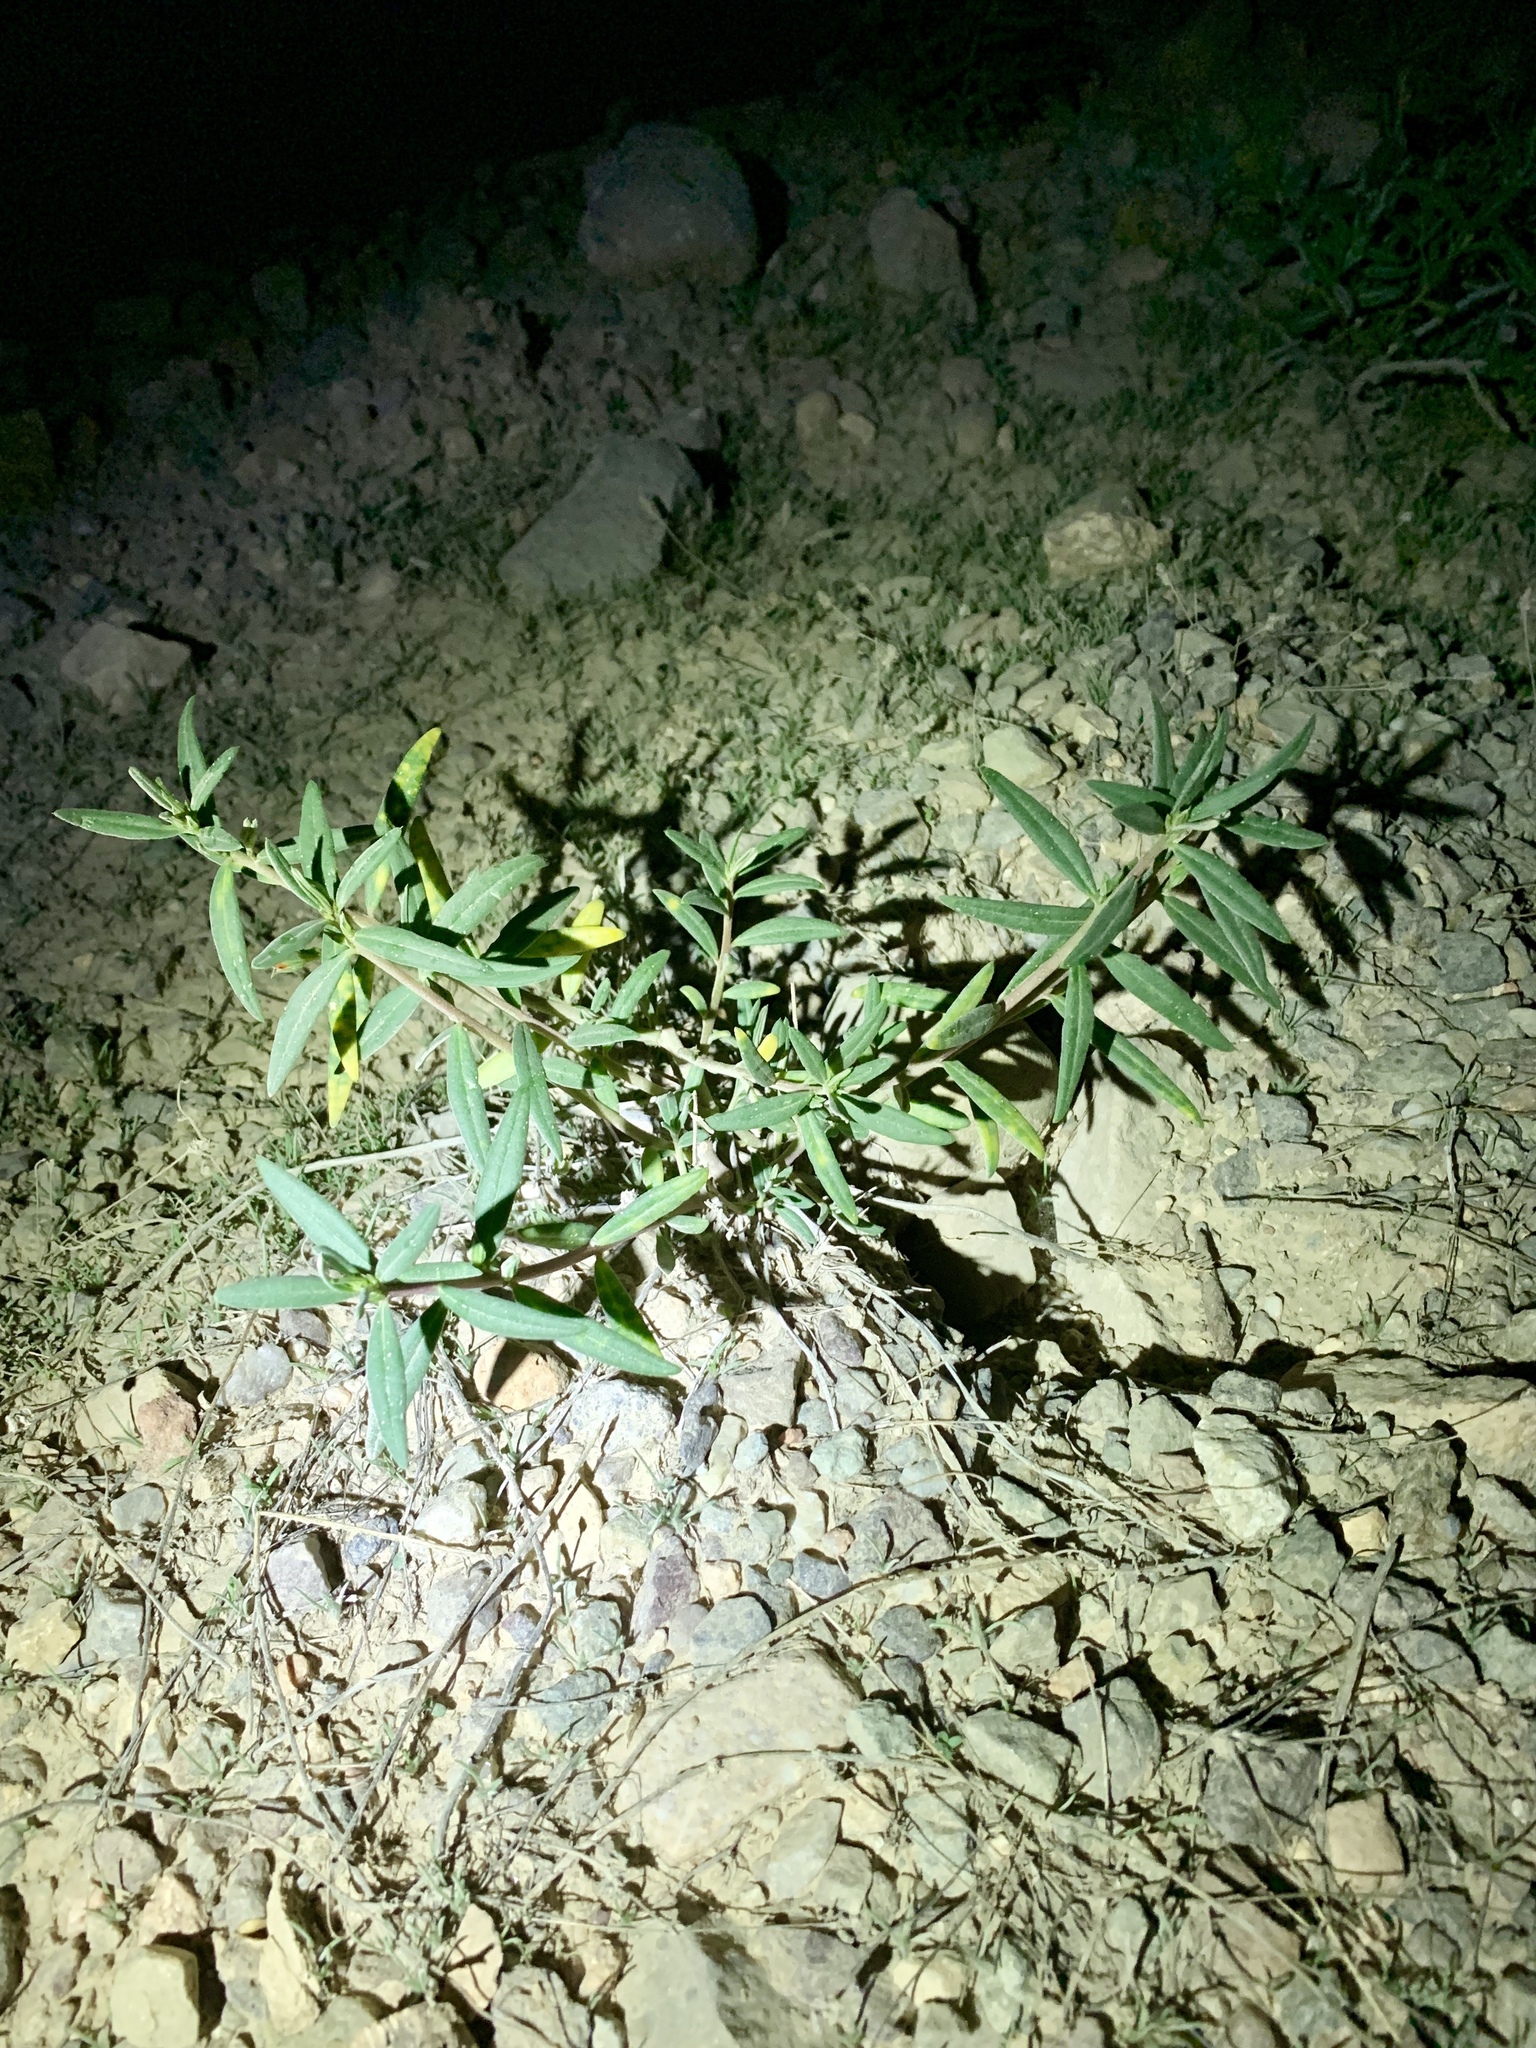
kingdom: Plantae
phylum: Tracheophyta
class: Magnoliopsida
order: Malpighiales
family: Malpighiaceae
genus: Cottsia
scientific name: Cottsia gracilis
